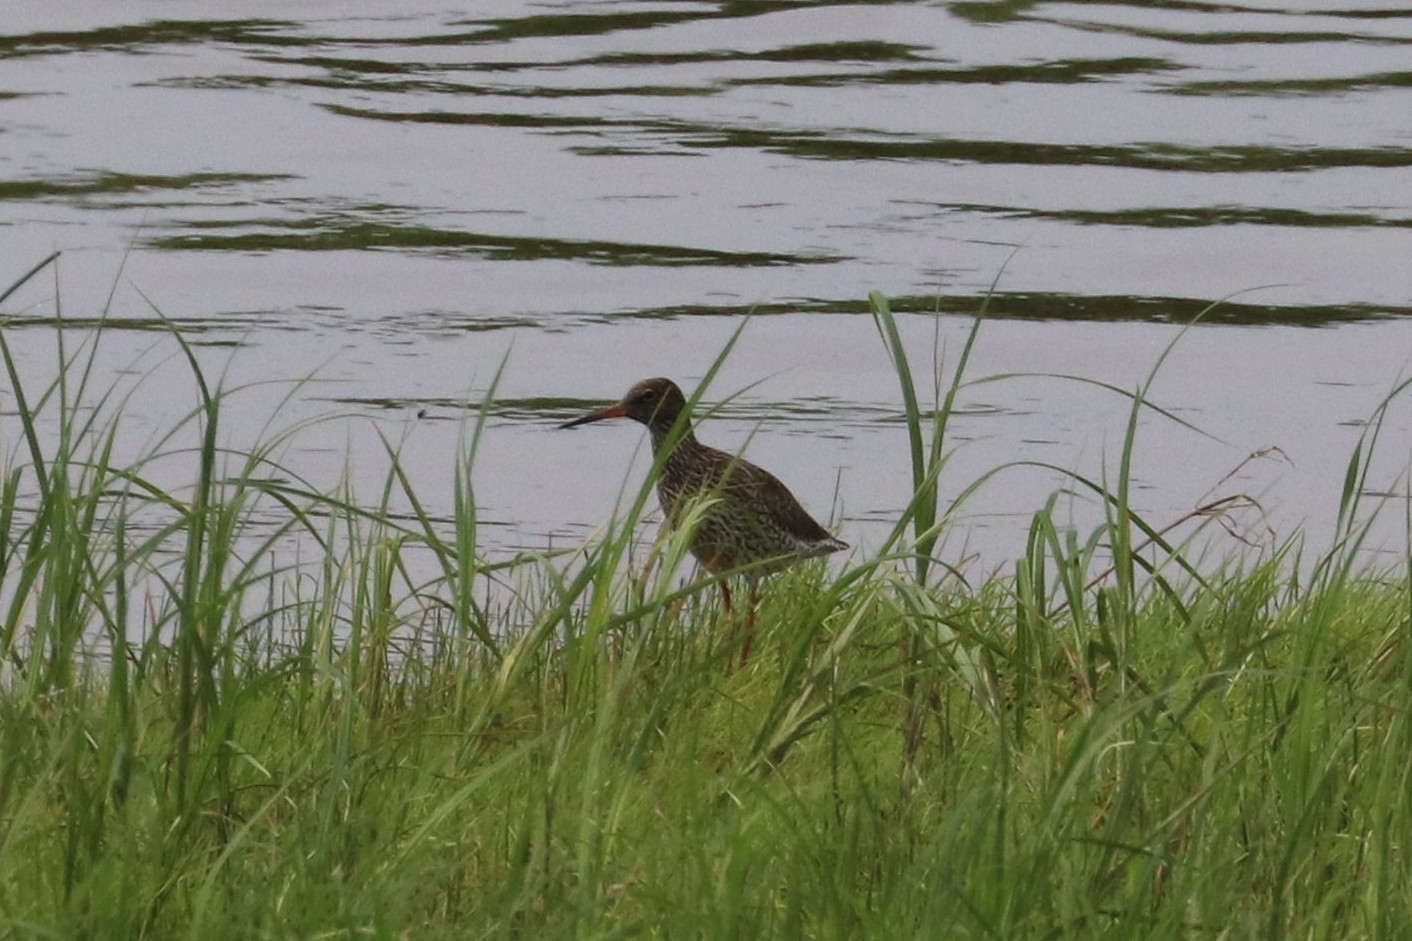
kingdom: Animalia
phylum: Chordata
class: Aves
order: Charadriiformes
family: Scolopacidae
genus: Tringa
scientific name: Tringa totanus
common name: Common redshank
